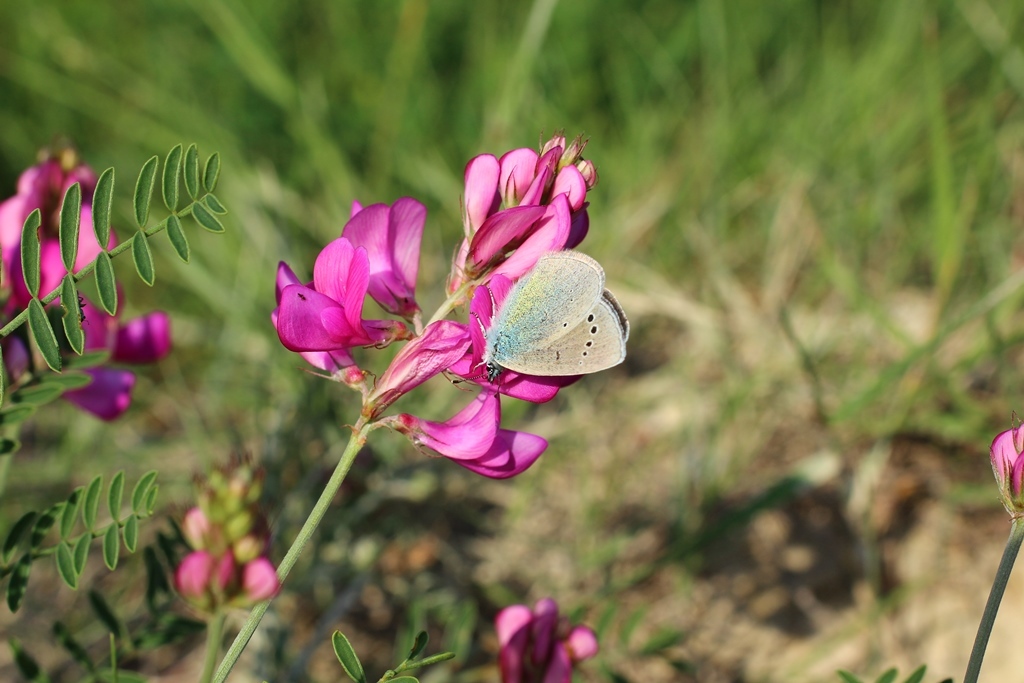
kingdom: Animalia
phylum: Arthropoda
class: Insecta
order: Lepidoptera
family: Lycaenidae
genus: Glaucopsyche
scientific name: Glaucopsyche alexis
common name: Green-underside blue
